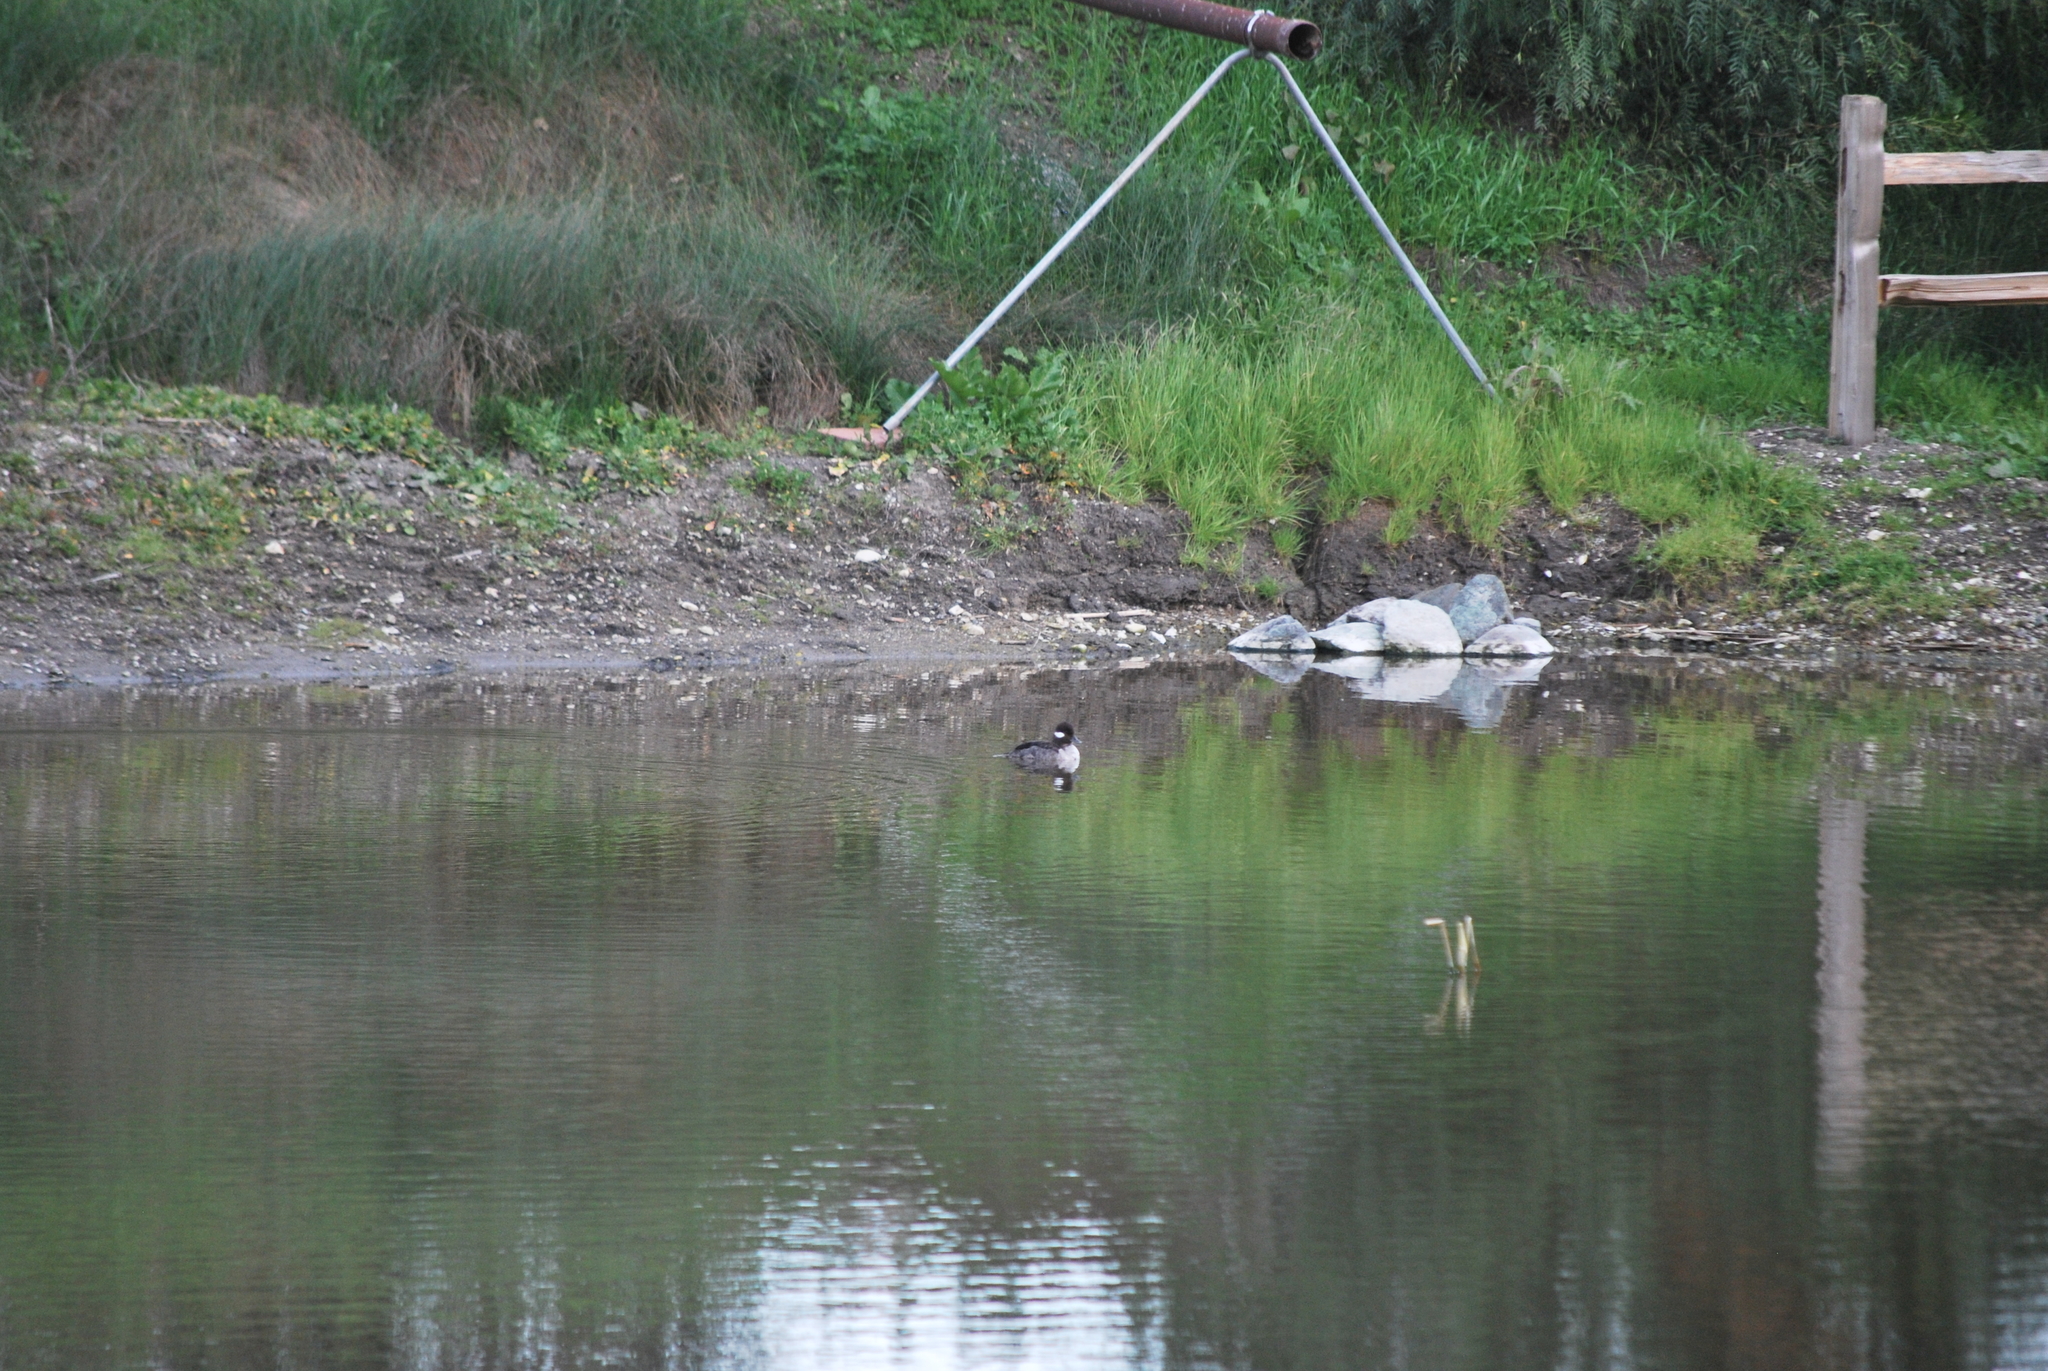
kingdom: Animalia
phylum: Chordata
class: Aves
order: Anseriformes
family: Anatidae
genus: Bucephala
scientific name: Bucephala albeola
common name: Bufflehead
